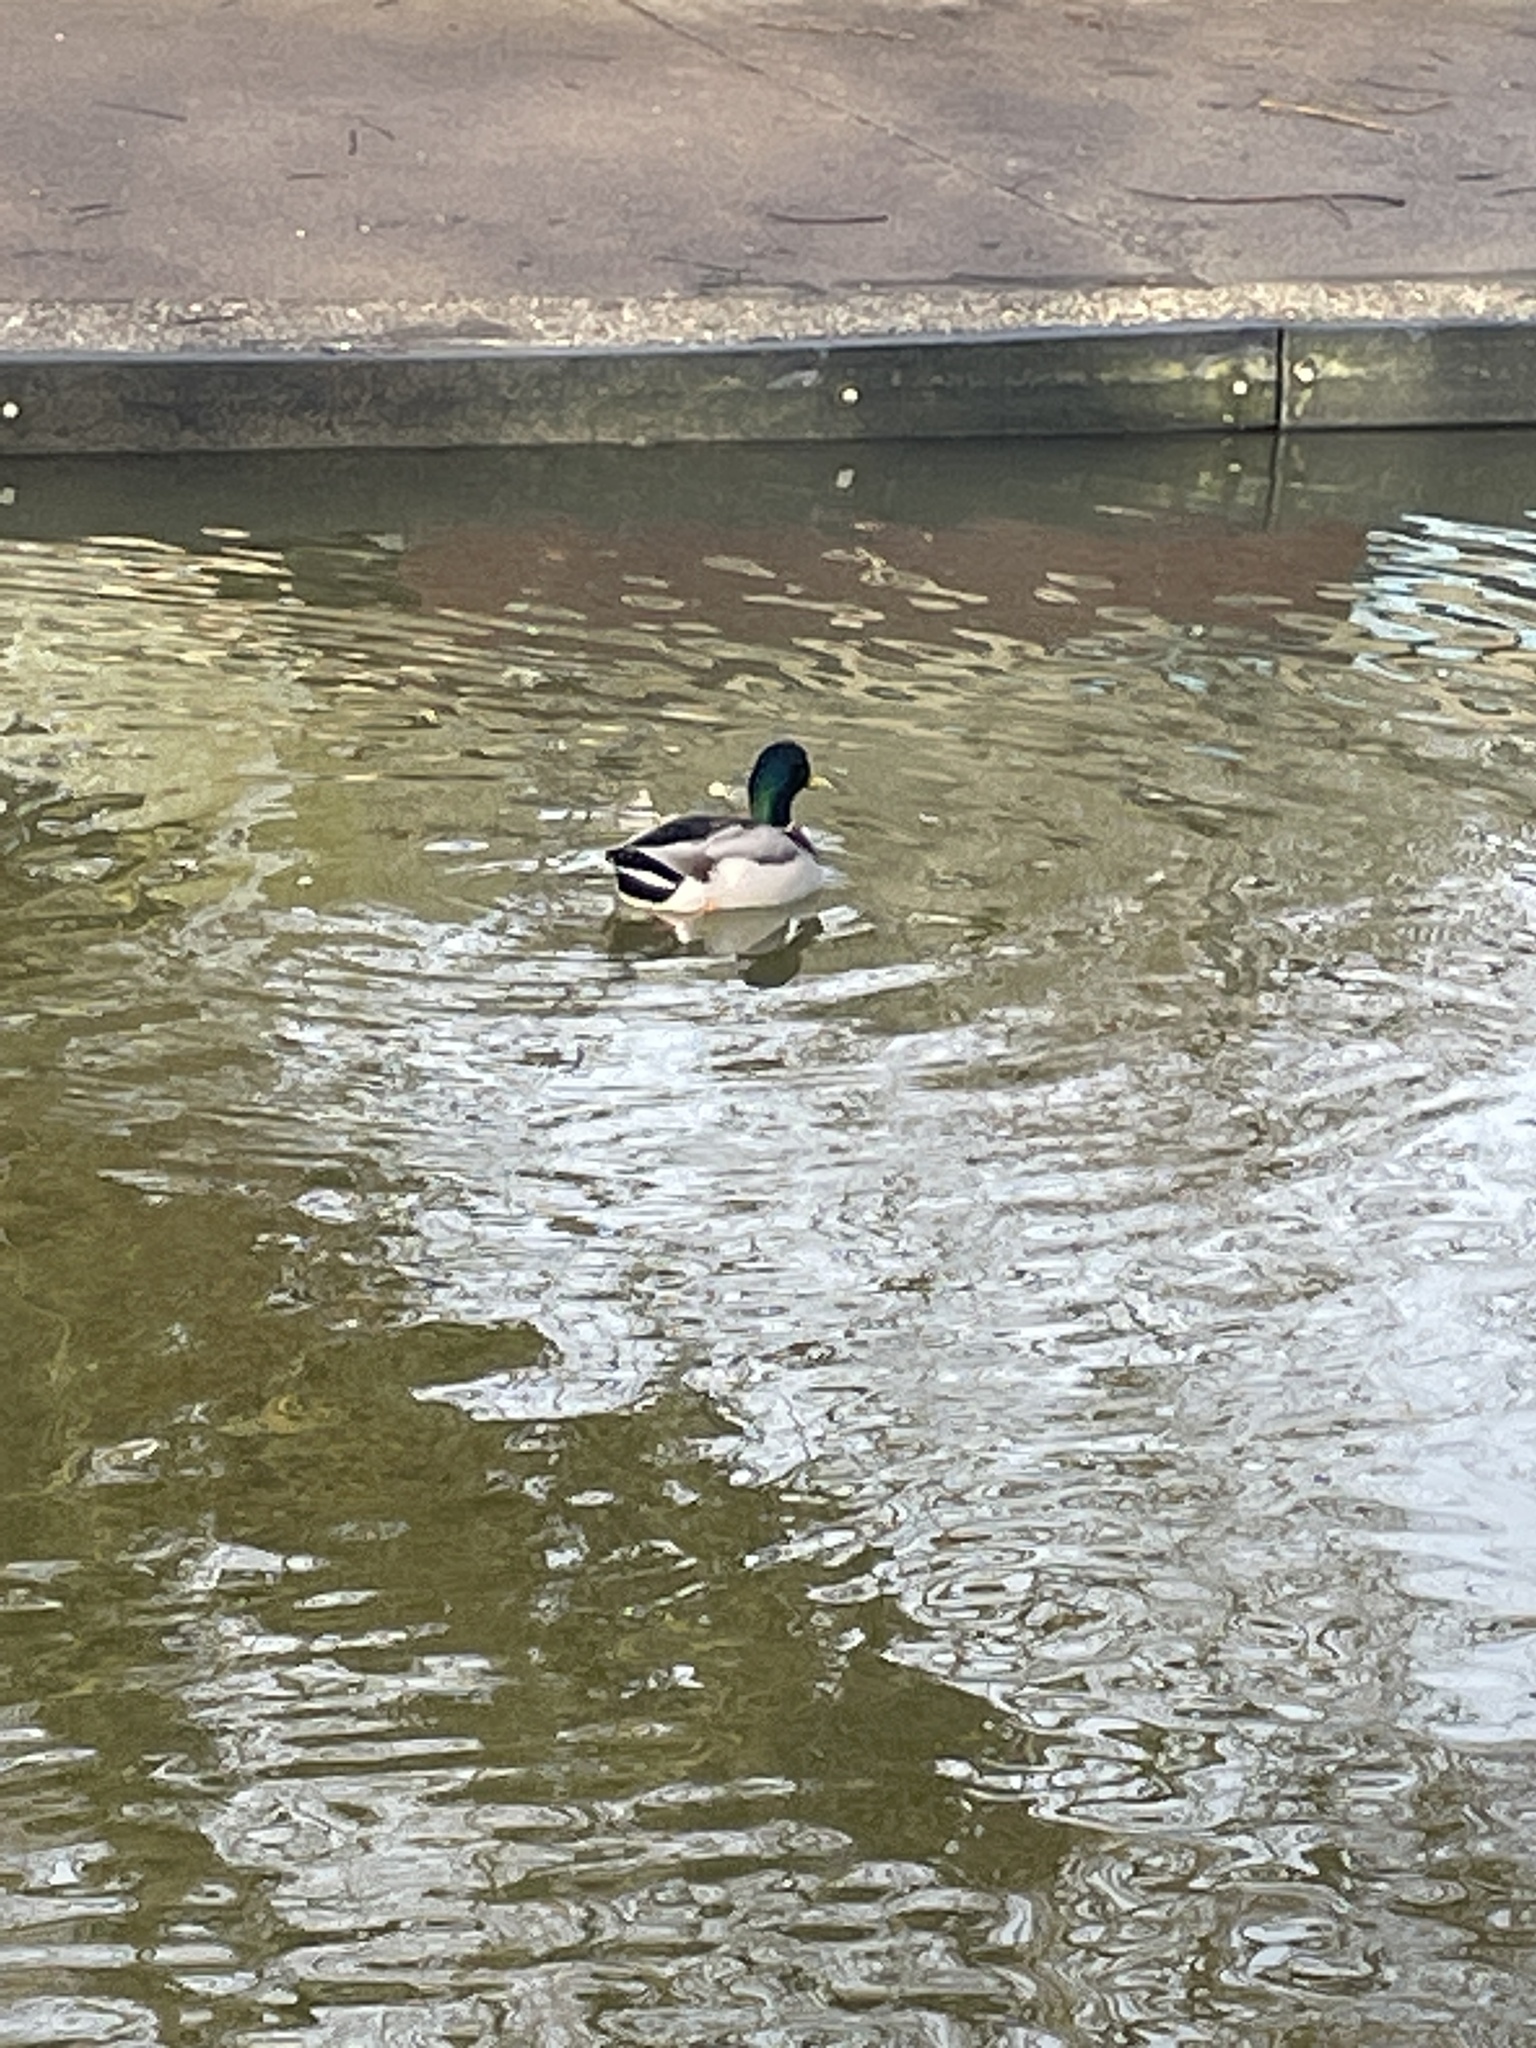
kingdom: Animalia
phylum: Chordata
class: Aves
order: Anseriformes
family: Anatidae
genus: Anas
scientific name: Anas platyrhynchos
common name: Mallard
